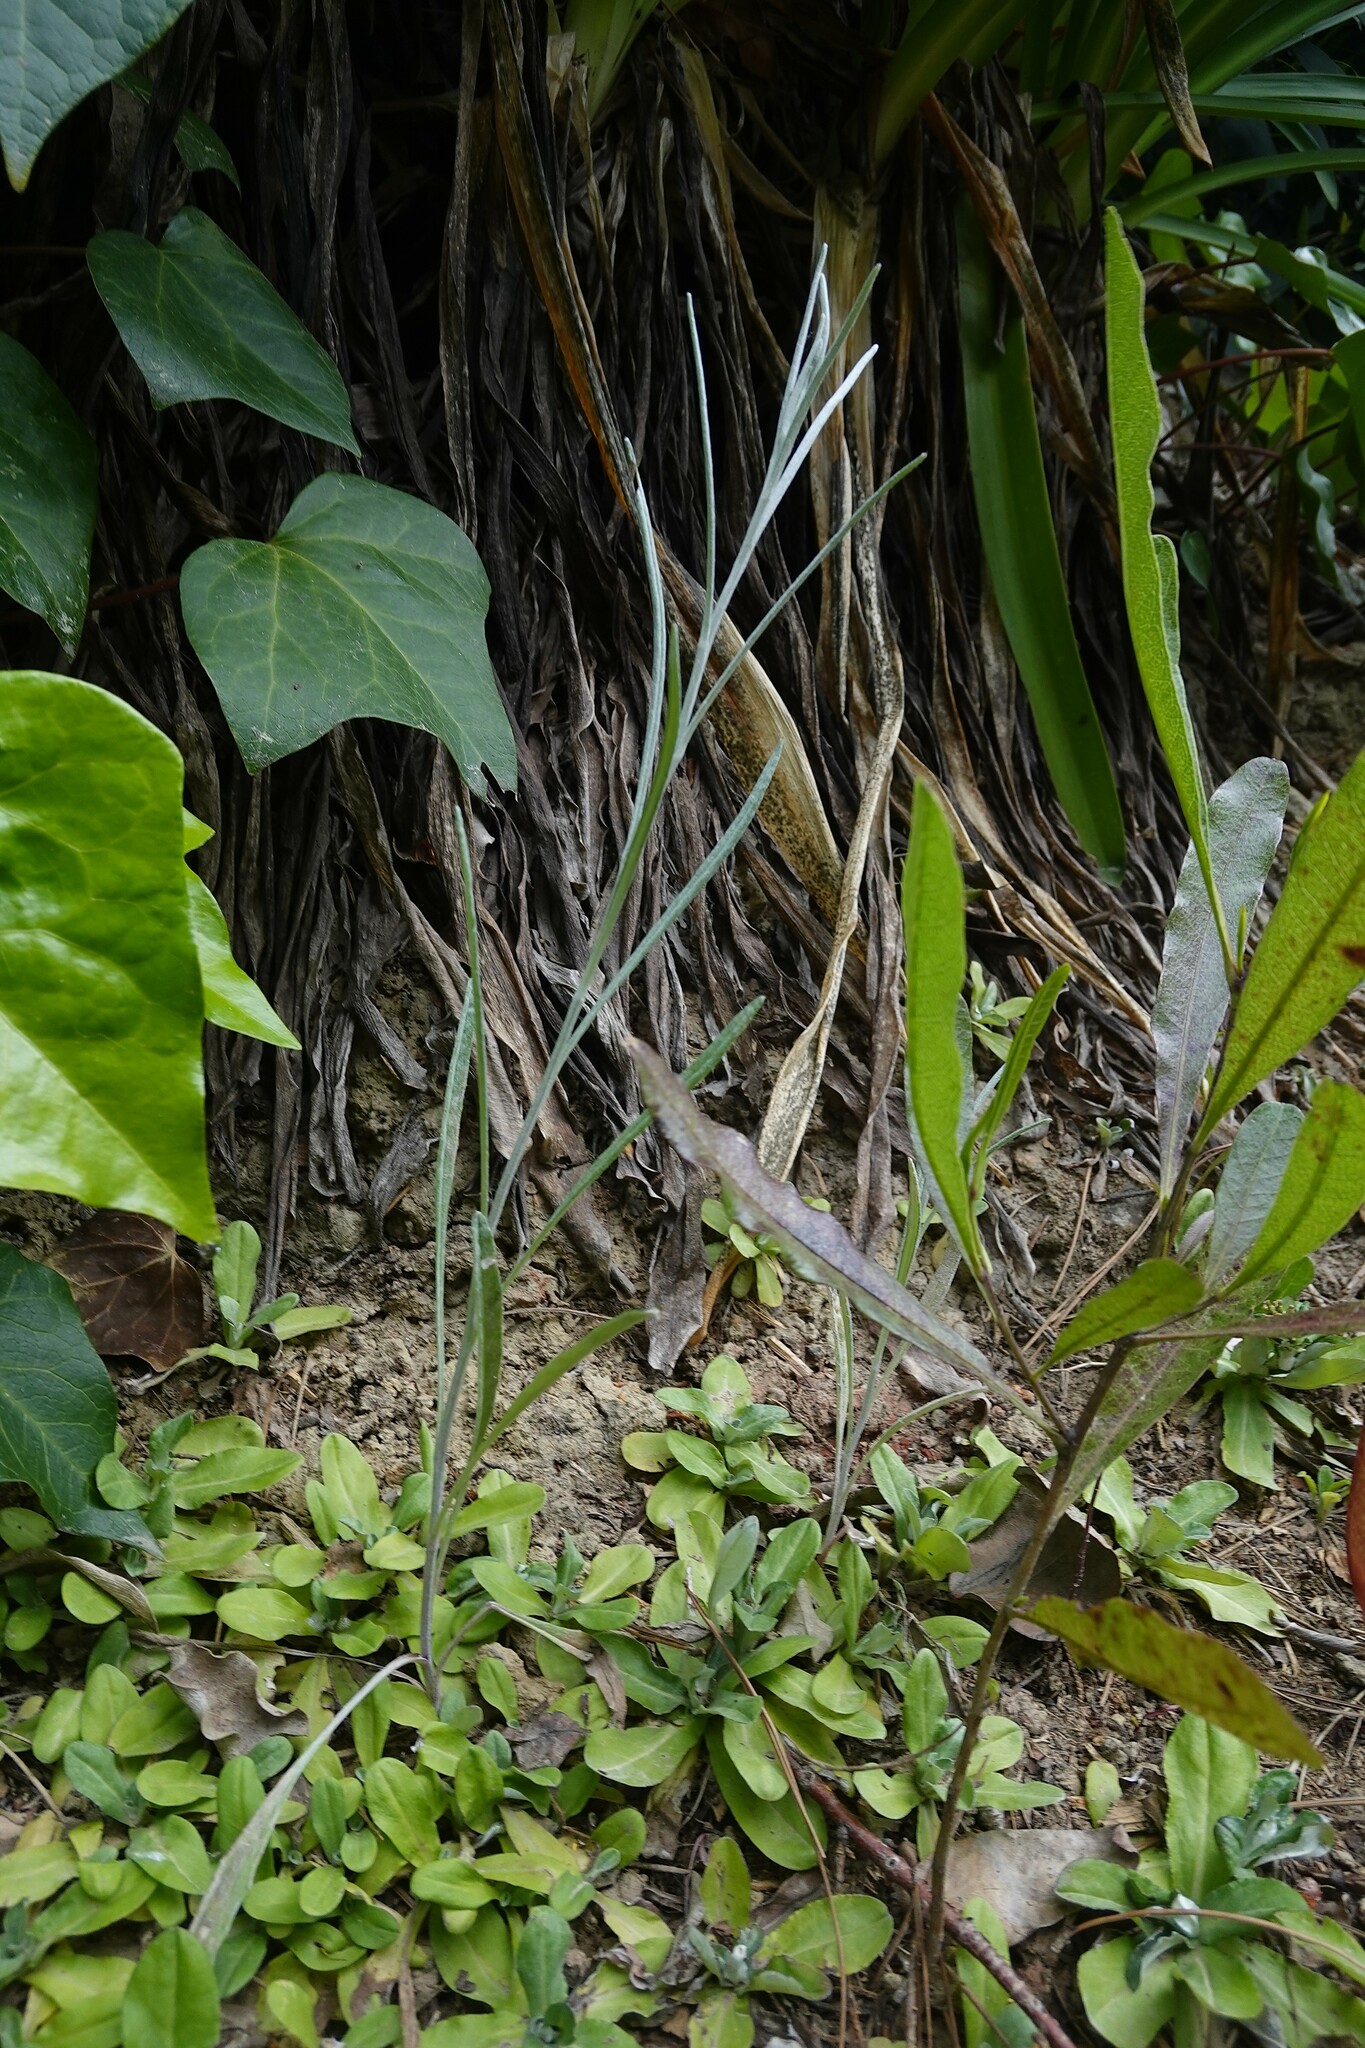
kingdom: Plantae
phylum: Tracheophyta
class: Magnoliopsida
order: Asterales
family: Asteraceae
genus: Senecio
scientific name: Senecio quadridentatus
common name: Cotton fireweed
